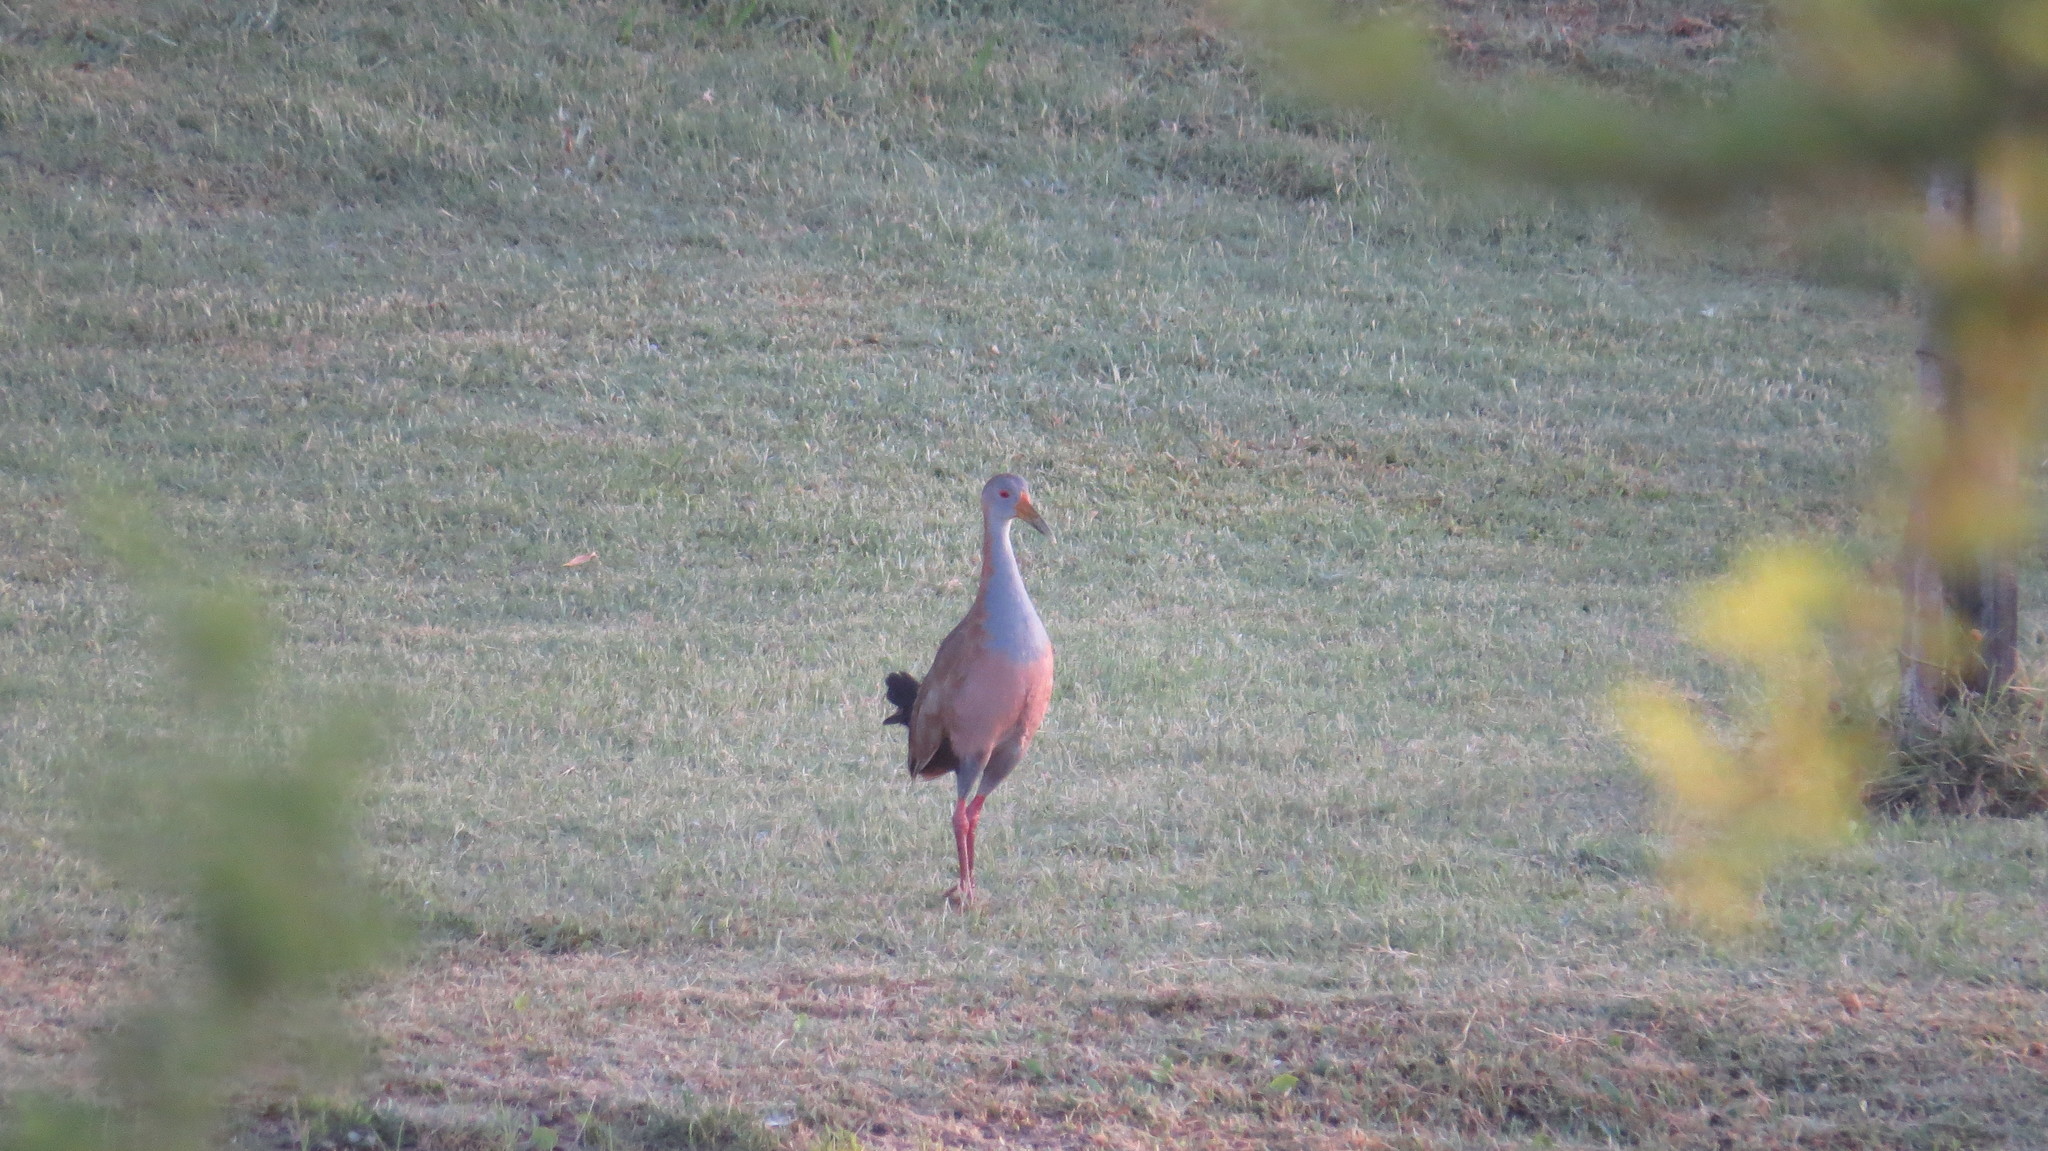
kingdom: Animalia
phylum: Chordata
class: Aves
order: Gruiformes
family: Rallidae
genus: Aramides
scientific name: Aramides ypecaha
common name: Giant wood rail
